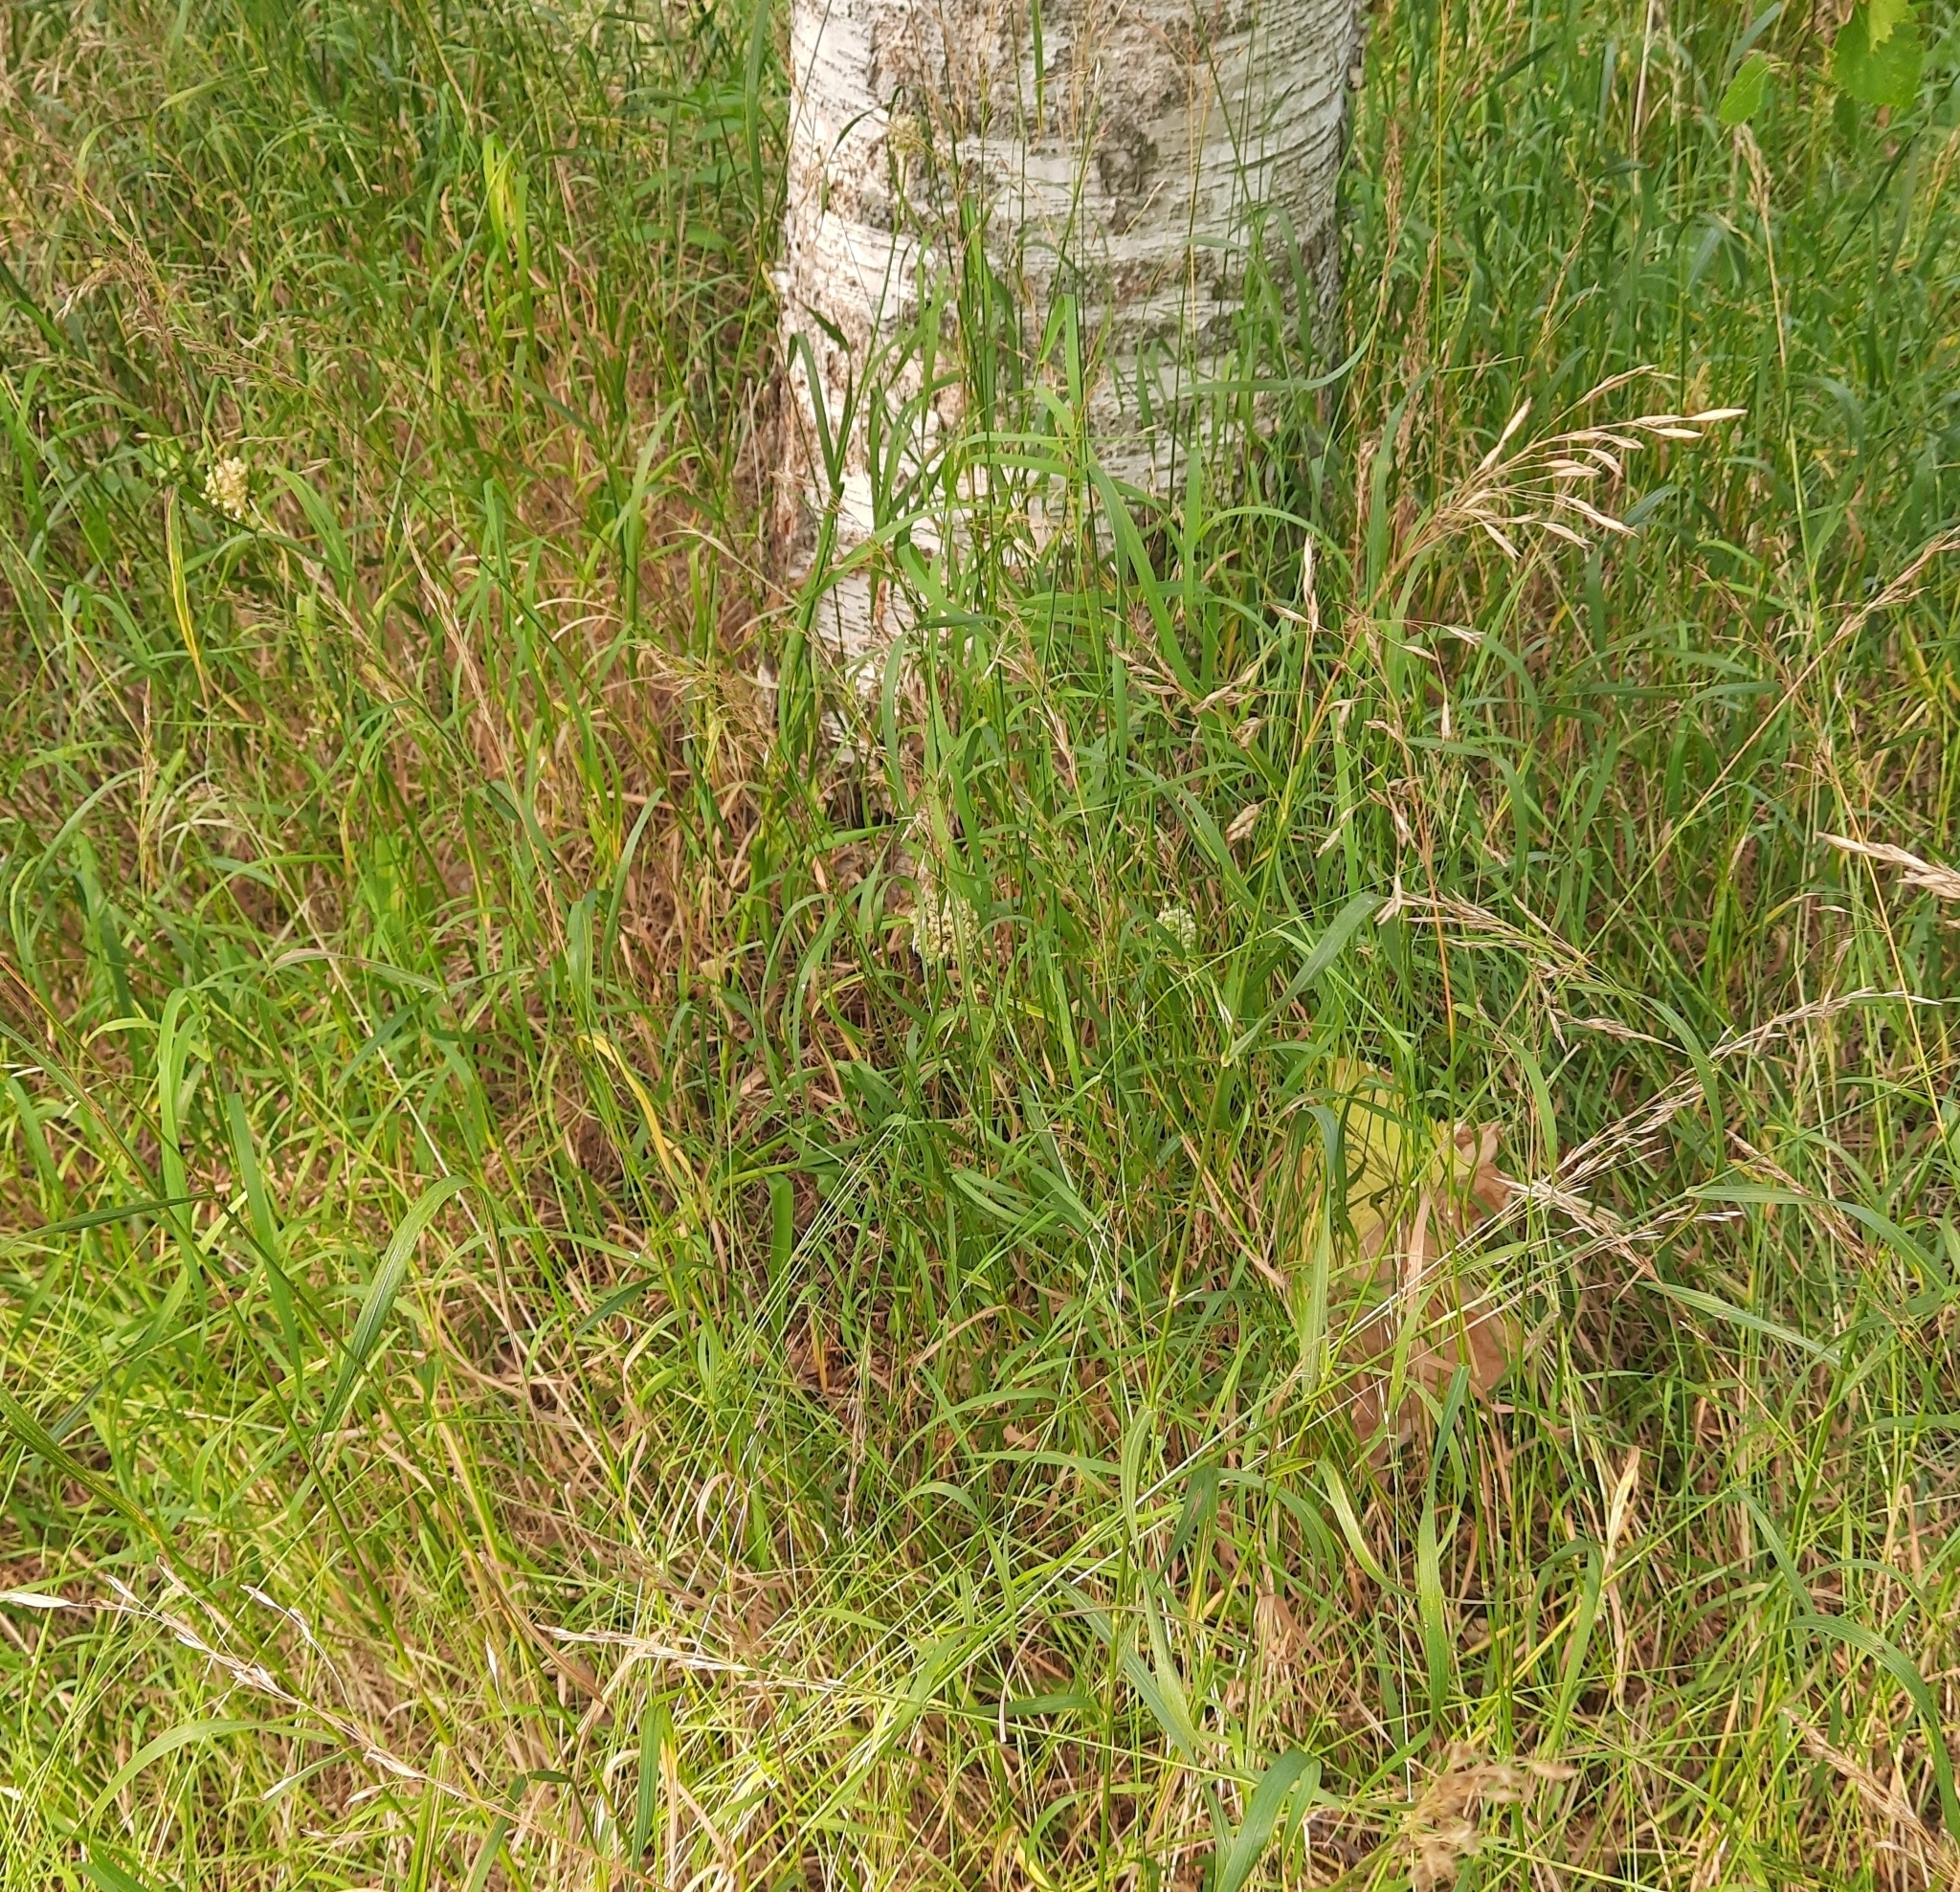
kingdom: Plantae
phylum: Tracheophyta
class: Liliopsida
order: Asparagales
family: Amaryllidaceae
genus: Allium
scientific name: Allium obliquum
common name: Oblique onion
